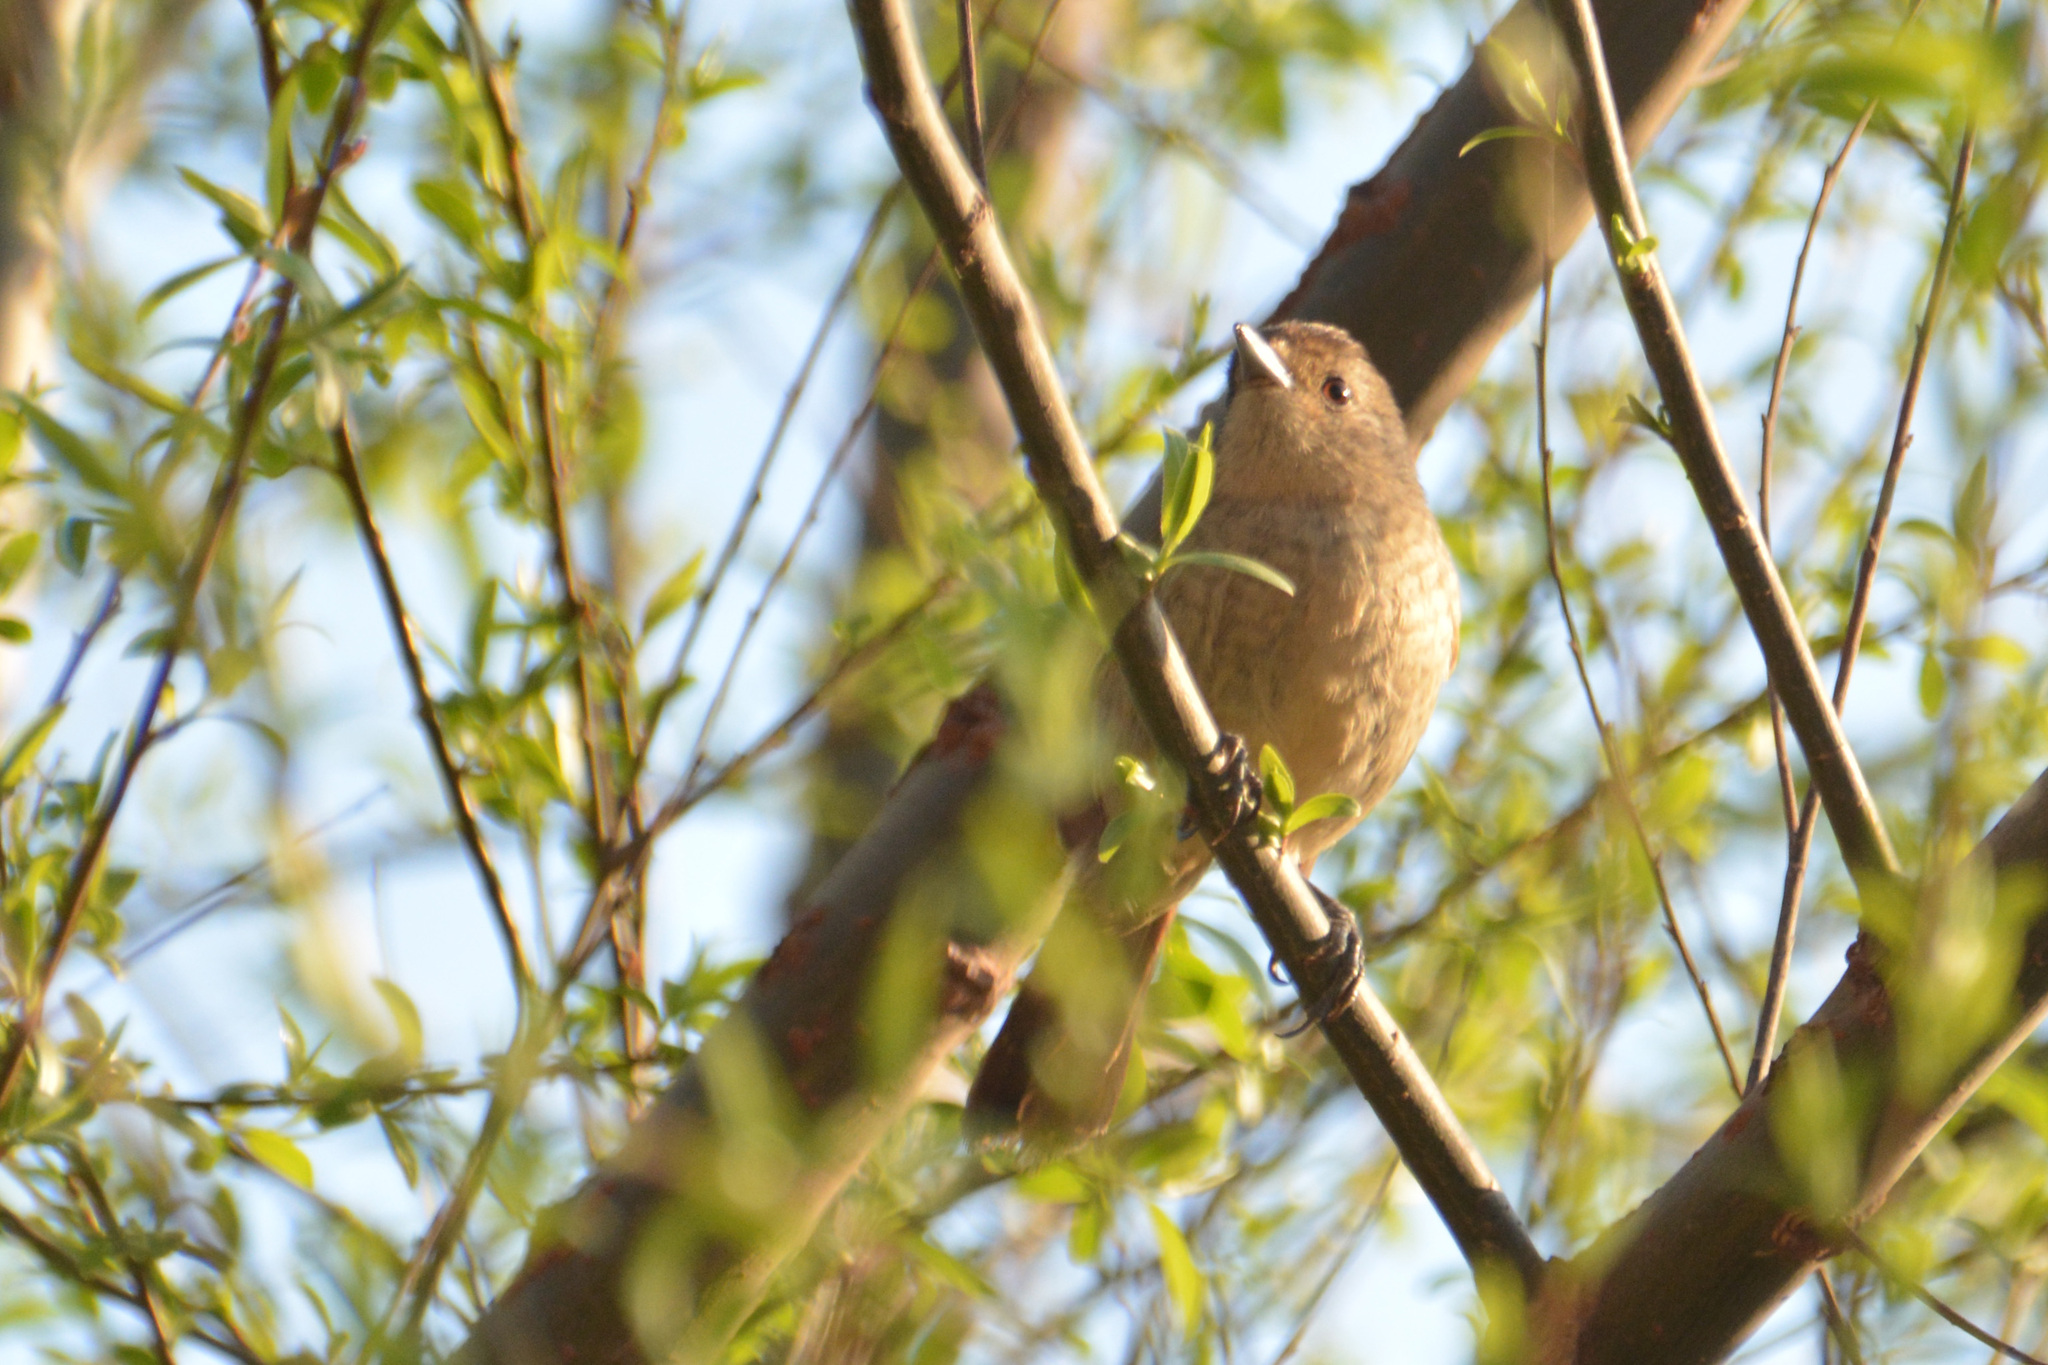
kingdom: Animalia
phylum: Chordata
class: Aves
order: Passeriformes
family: Thamnophilidae
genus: Thamnophilus
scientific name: Thamnophilus ruficapillus
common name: Rufous-capped antshrike
